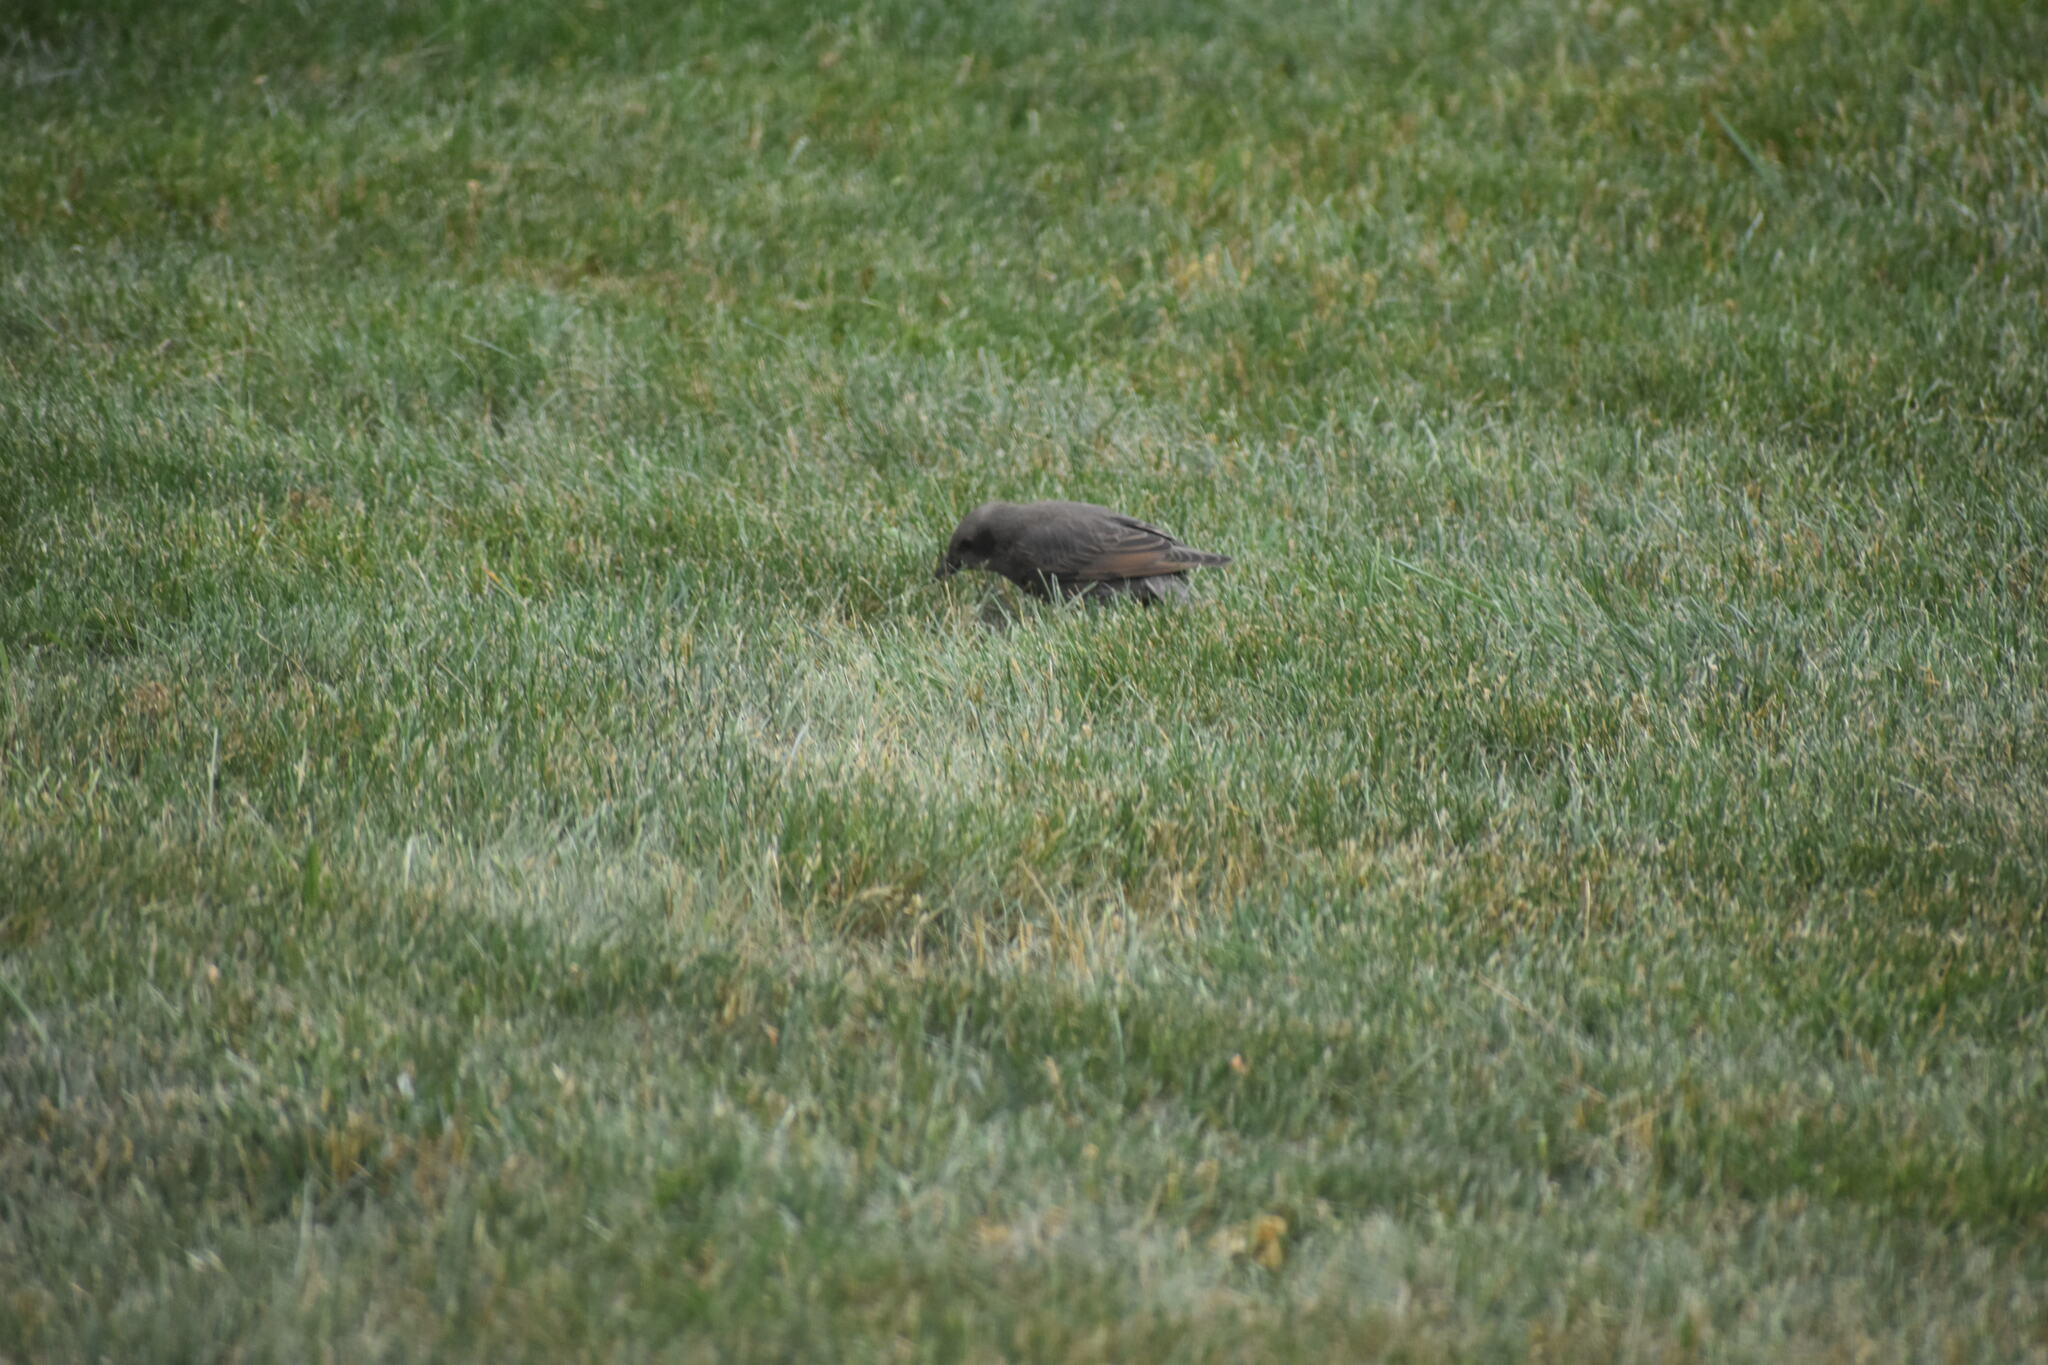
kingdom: Animalia
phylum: Chordata
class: Aves
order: Passeriformes
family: Sturnidae
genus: Sturnus
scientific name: Sturnus vulgaris
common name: Common starling
